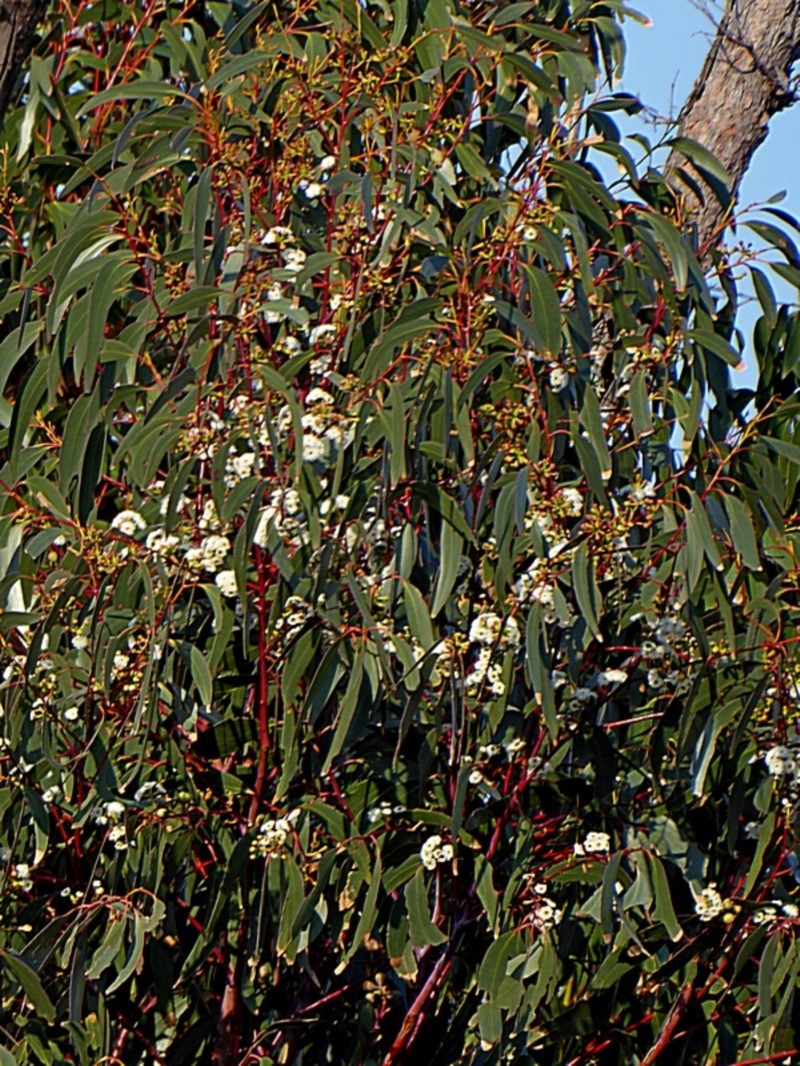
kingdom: Plantae
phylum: Tracheophyta
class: Magnoliopsida
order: Myrtales
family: Myrtaceae
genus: Eucalyptus
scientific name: Eucalyptus sieberi
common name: Black-ash
